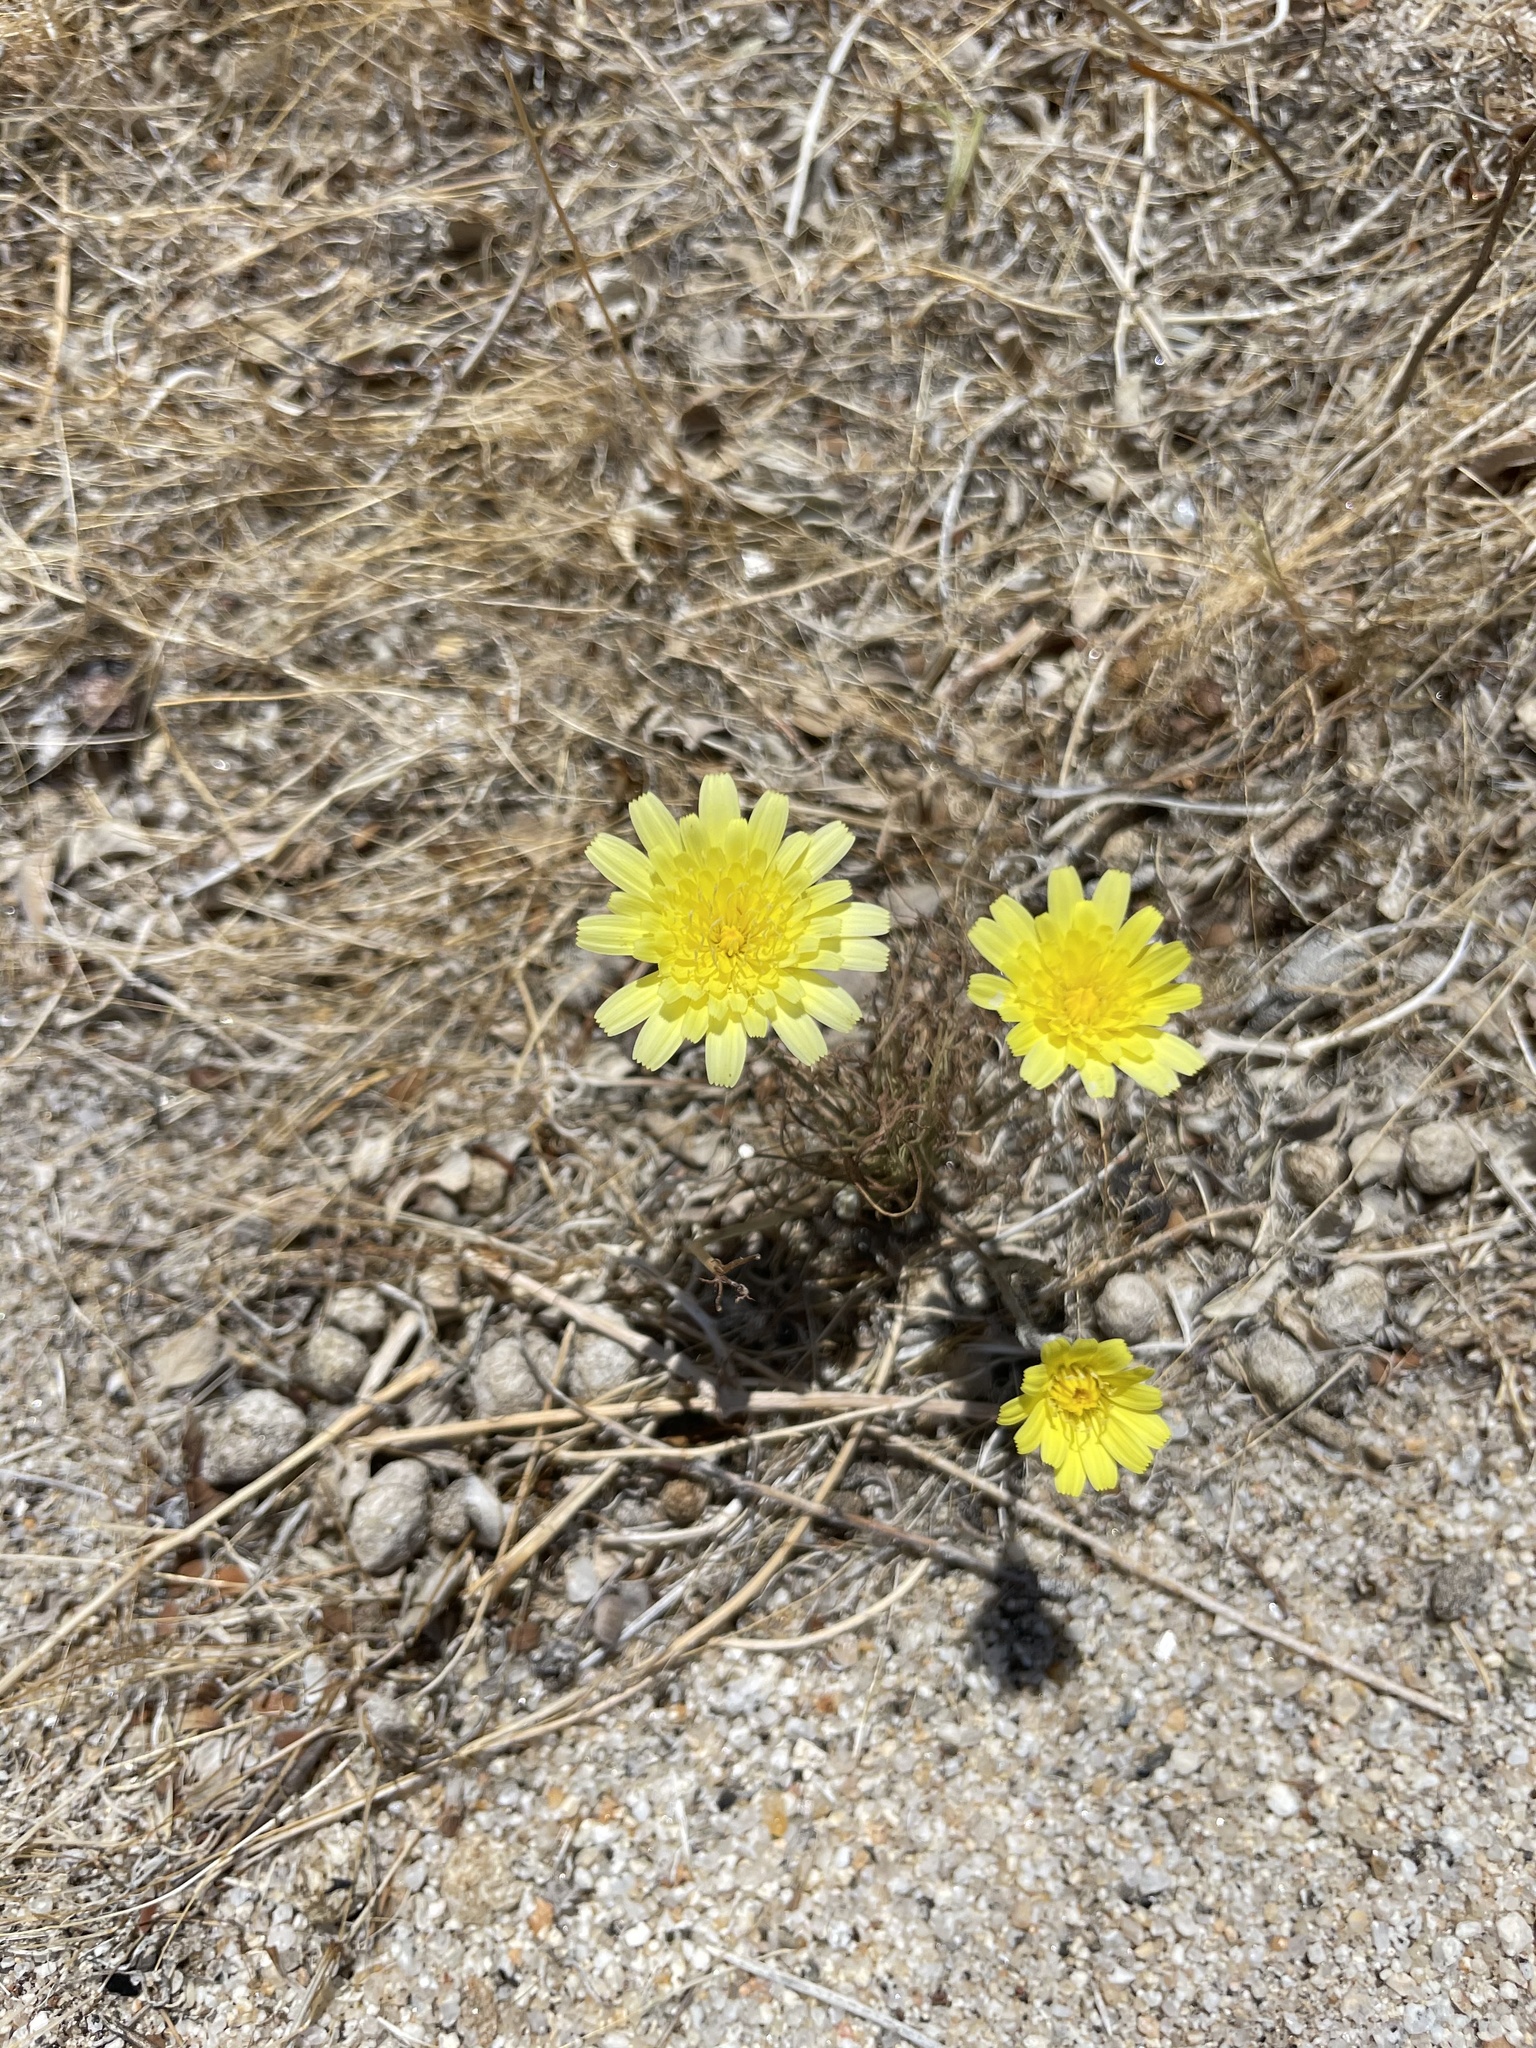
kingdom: Plantae
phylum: Tracheophyta
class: Magnoliopsida
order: Asterales
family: Asteraceae
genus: Malacothrix
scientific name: Malacothrix glabrata
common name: Smooth desert-dandelion
